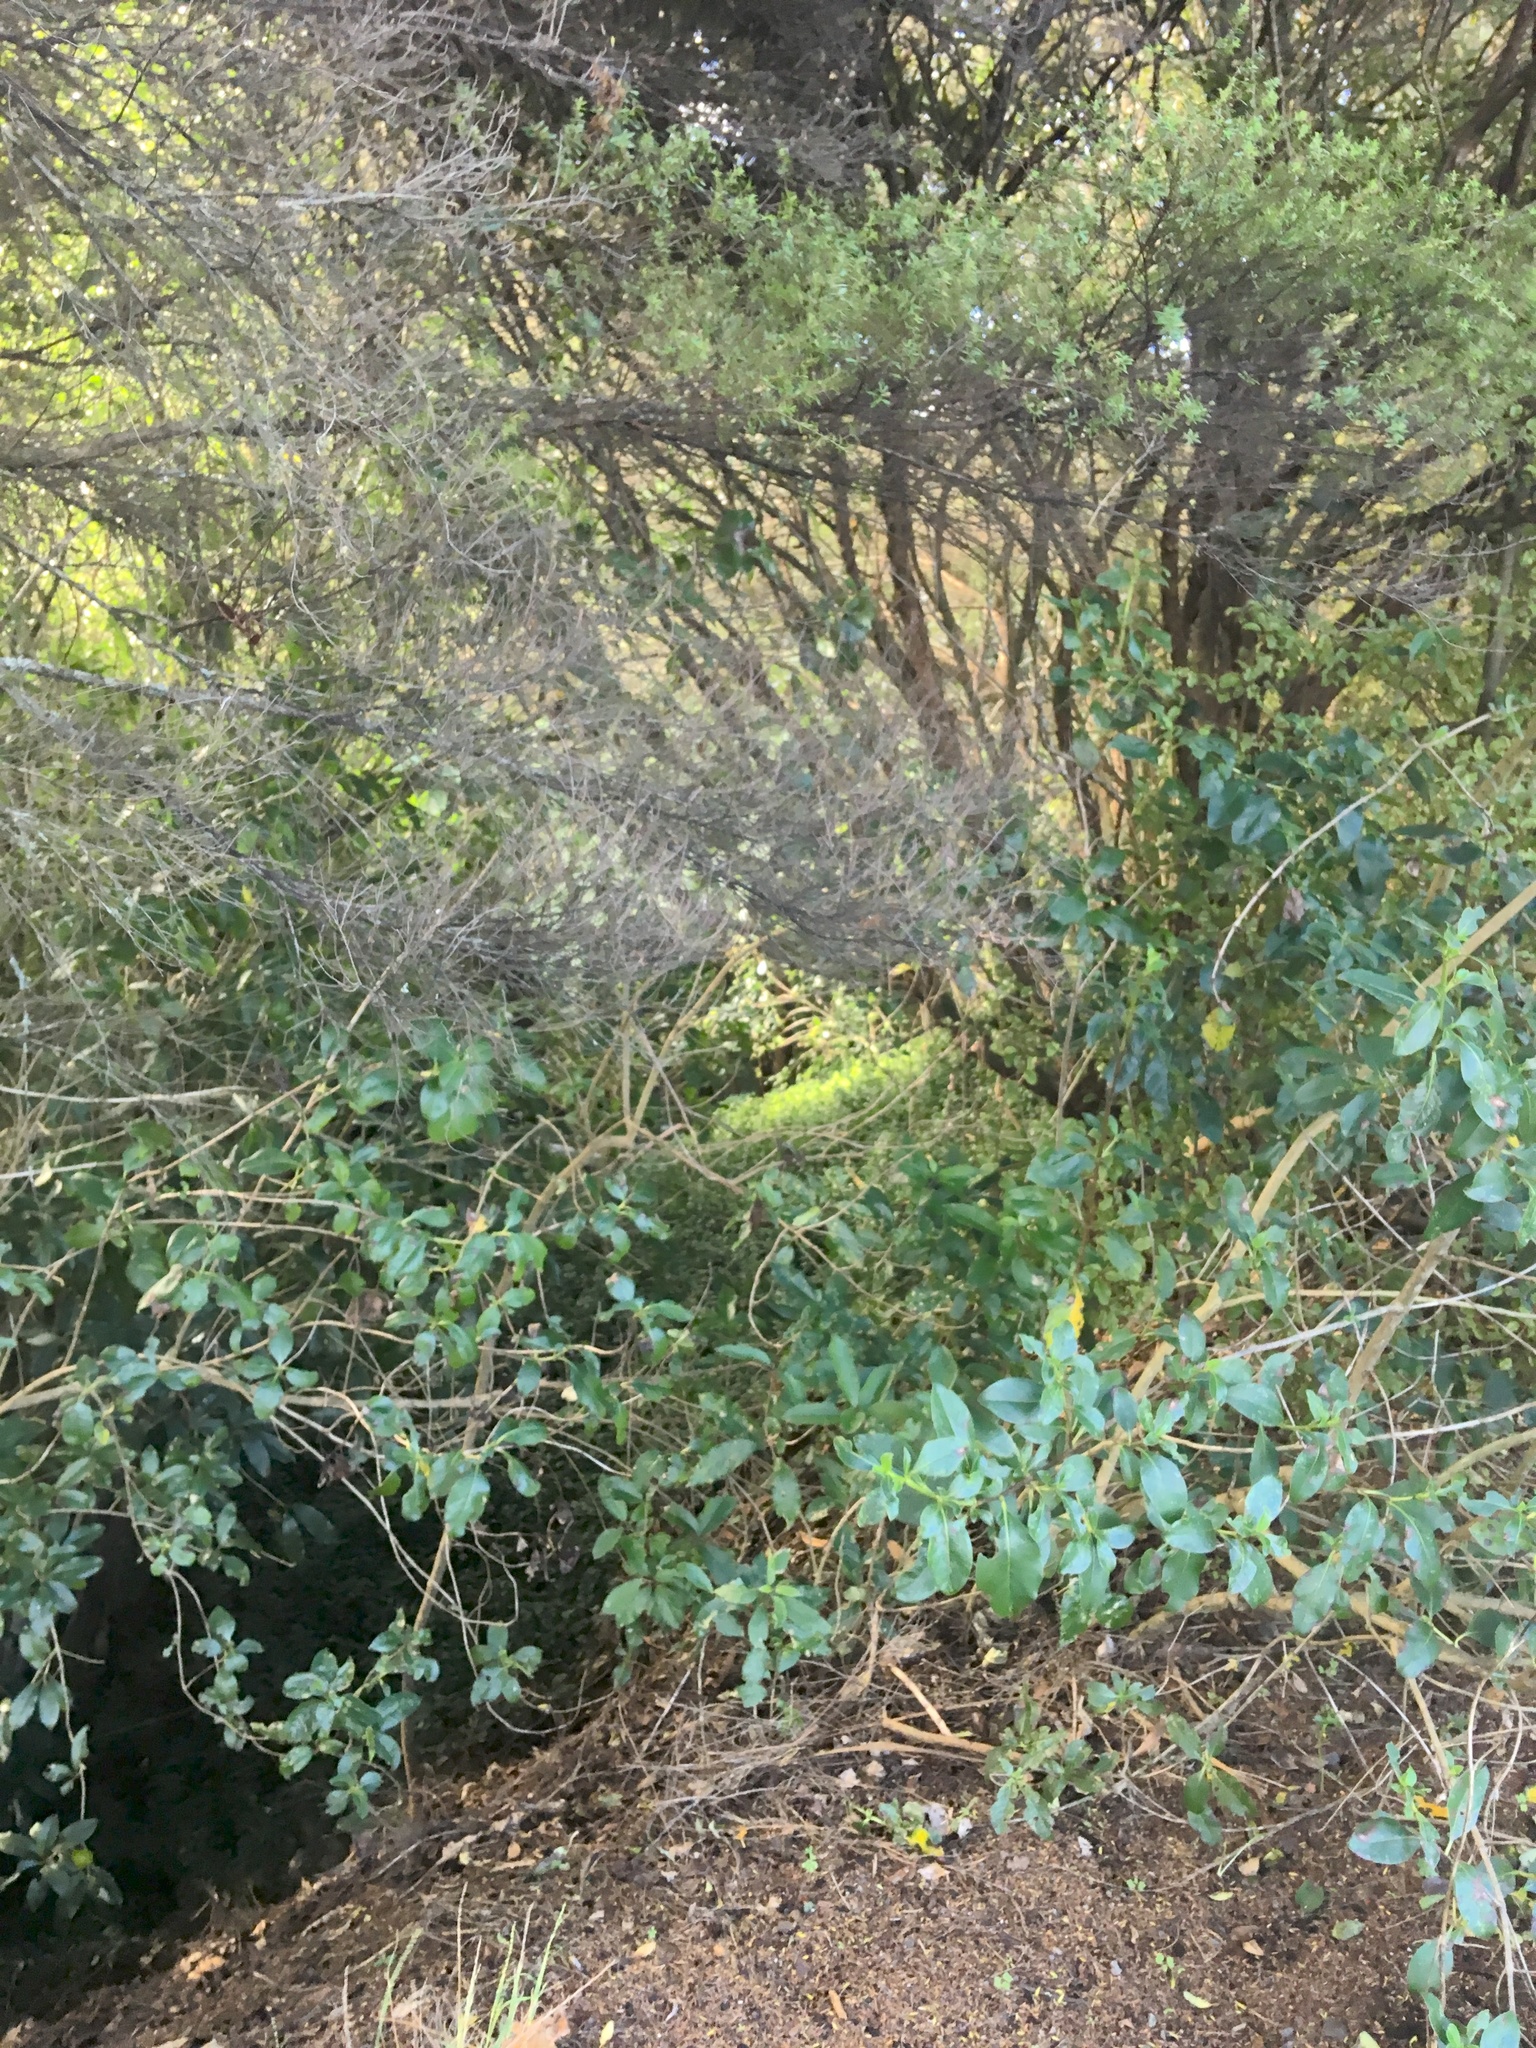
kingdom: Plantae
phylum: Tracheophyta
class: Magnoliopsida
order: Gentianales
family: Rubiaceae
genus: Coprosma
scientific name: Coprosma robusta
